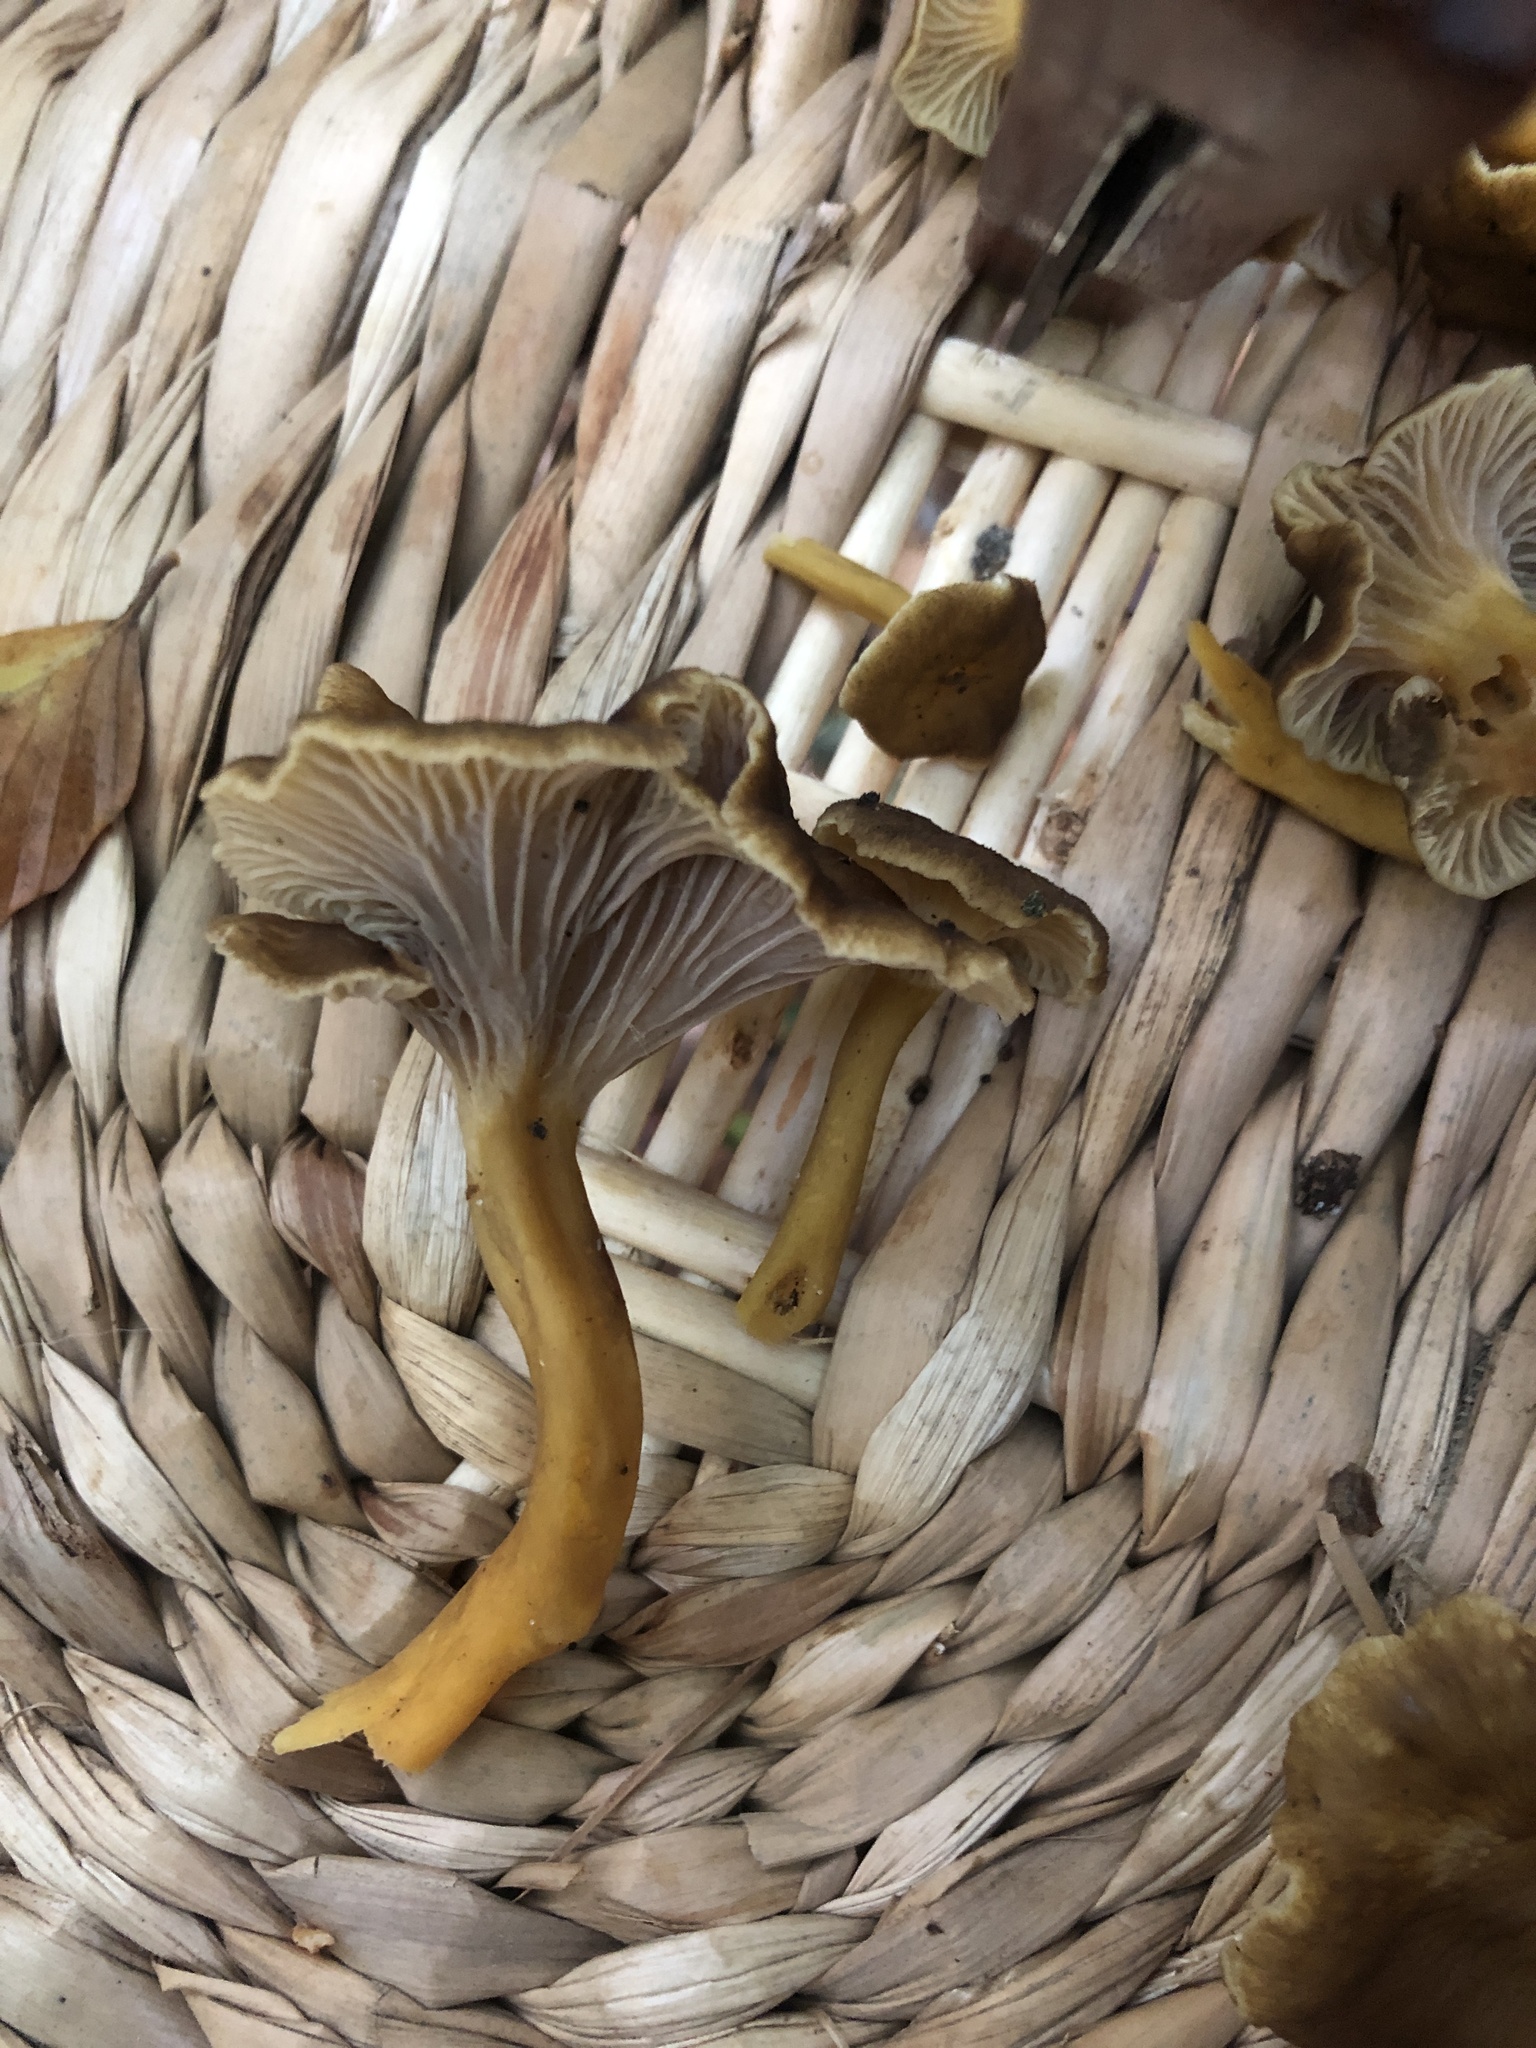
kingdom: Fungi
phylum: Basidiomycota
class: Agaricomycetes
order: Cantharellales
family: Hydnaceae
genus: Craterellus
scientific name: Craterellus tubaeformis
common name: Yellowfoot
